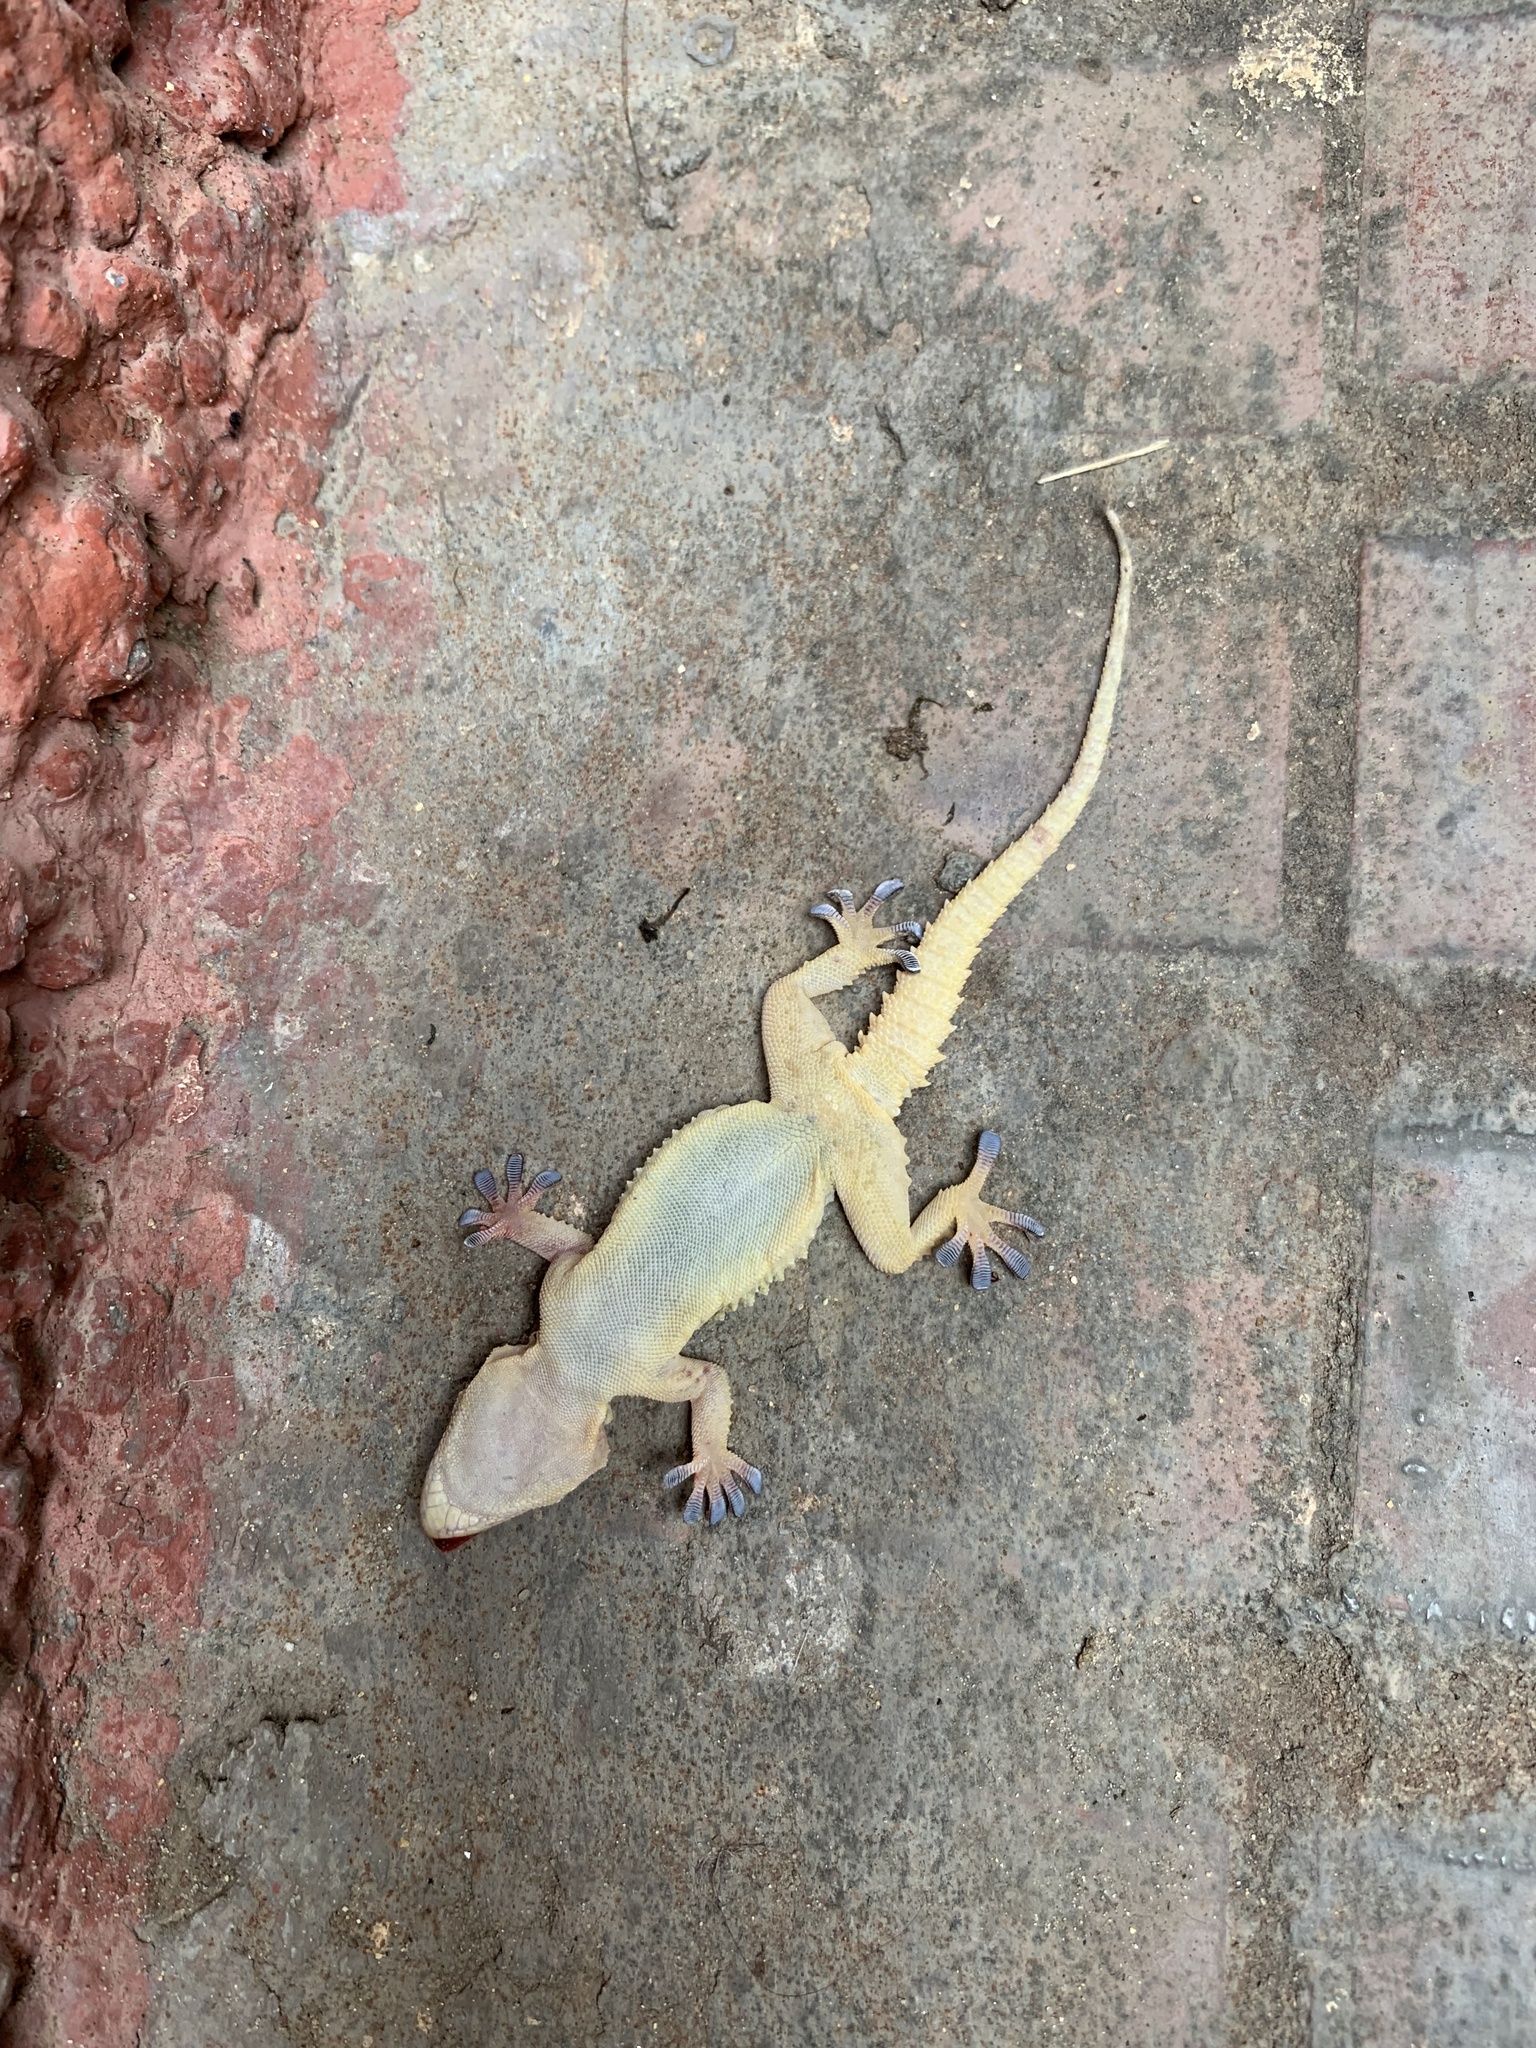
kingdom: Animalia
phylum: Chordata
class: Squamata
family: Phyllodactylidae
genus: Tarentola
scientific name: Tarentola mauritanica
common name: Moorish gecko
